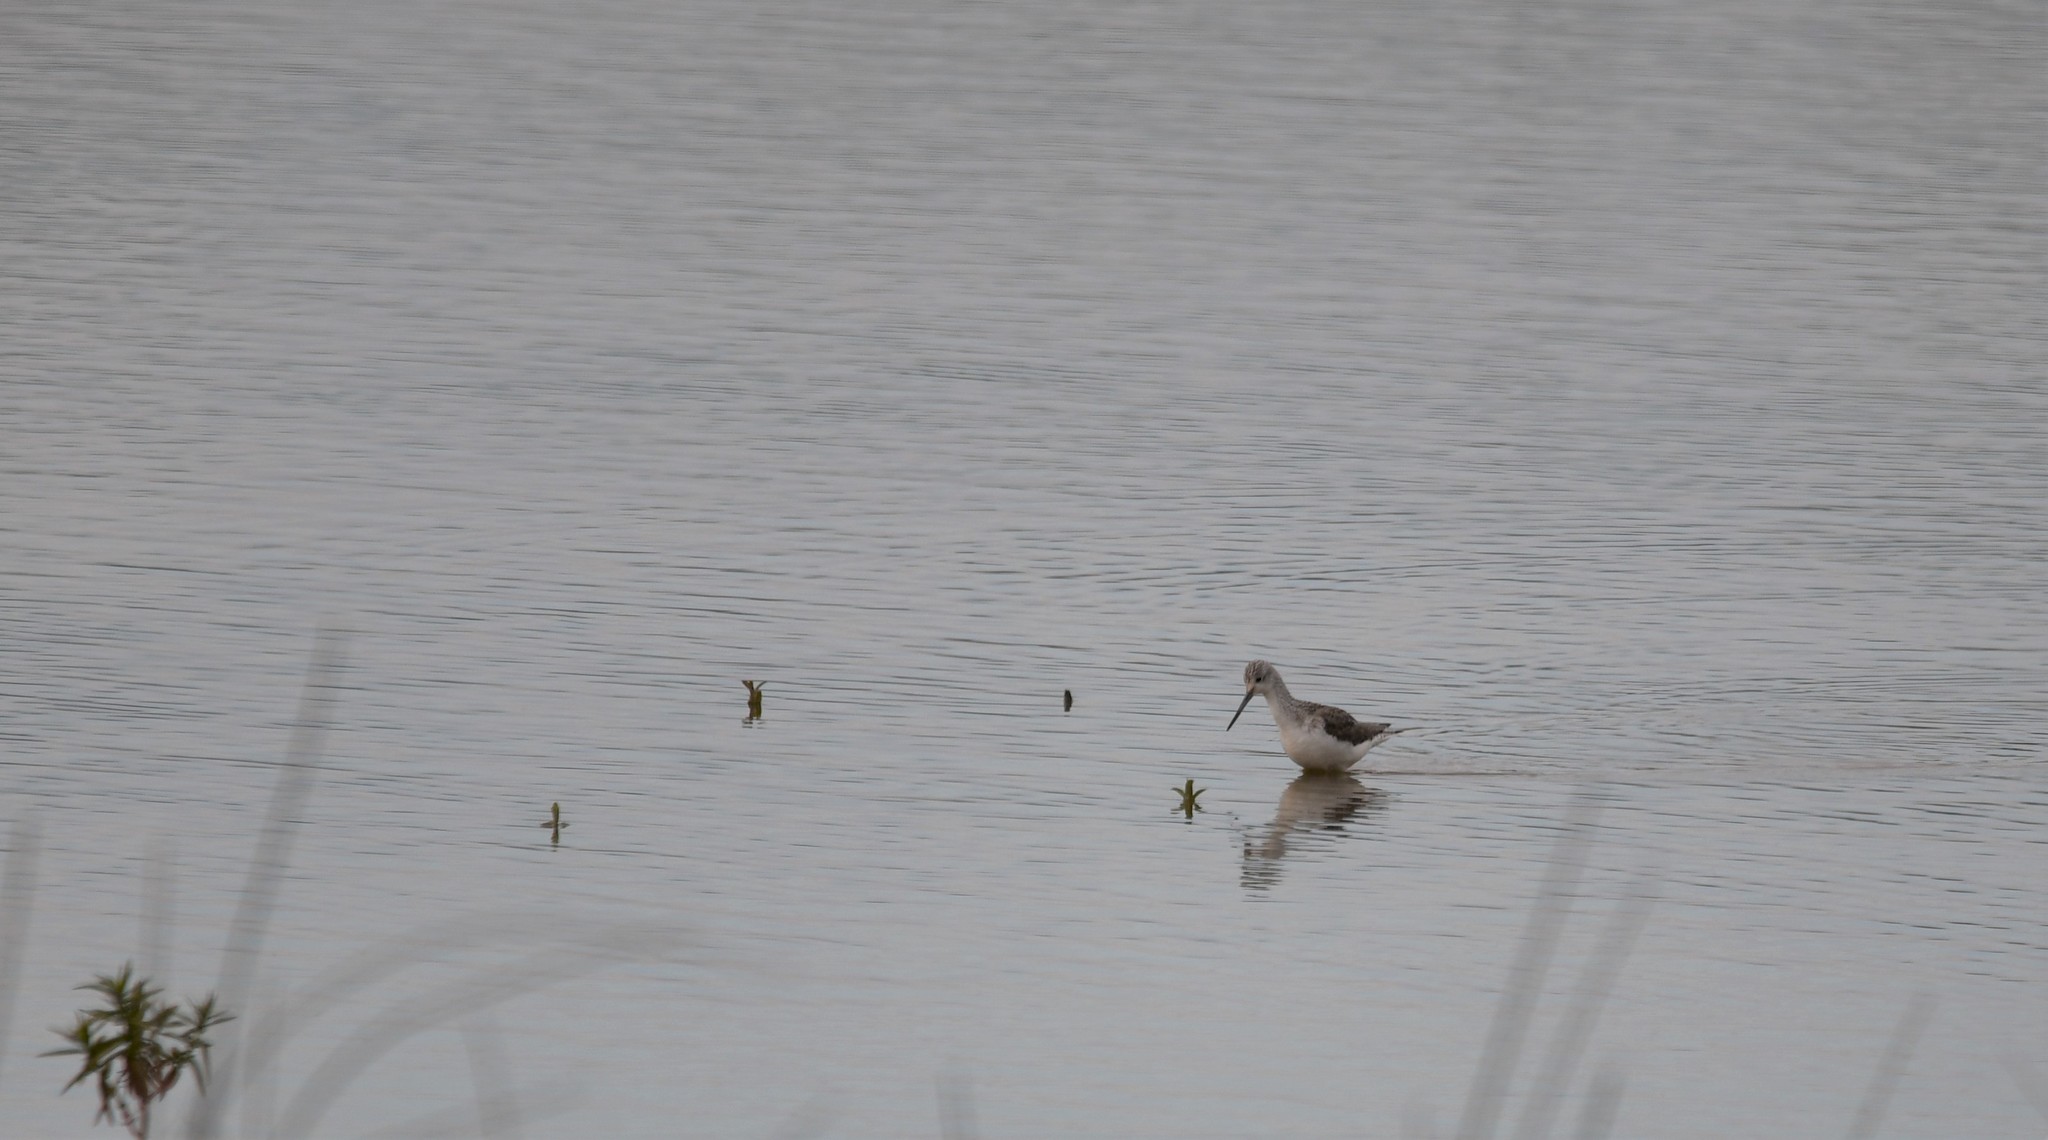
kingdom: Animalia
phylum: Chordata
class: Aves
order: Charadriiformes
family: Scolopacidae
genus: Tringa
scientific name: Tringa nebularia
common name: Common greenshank
